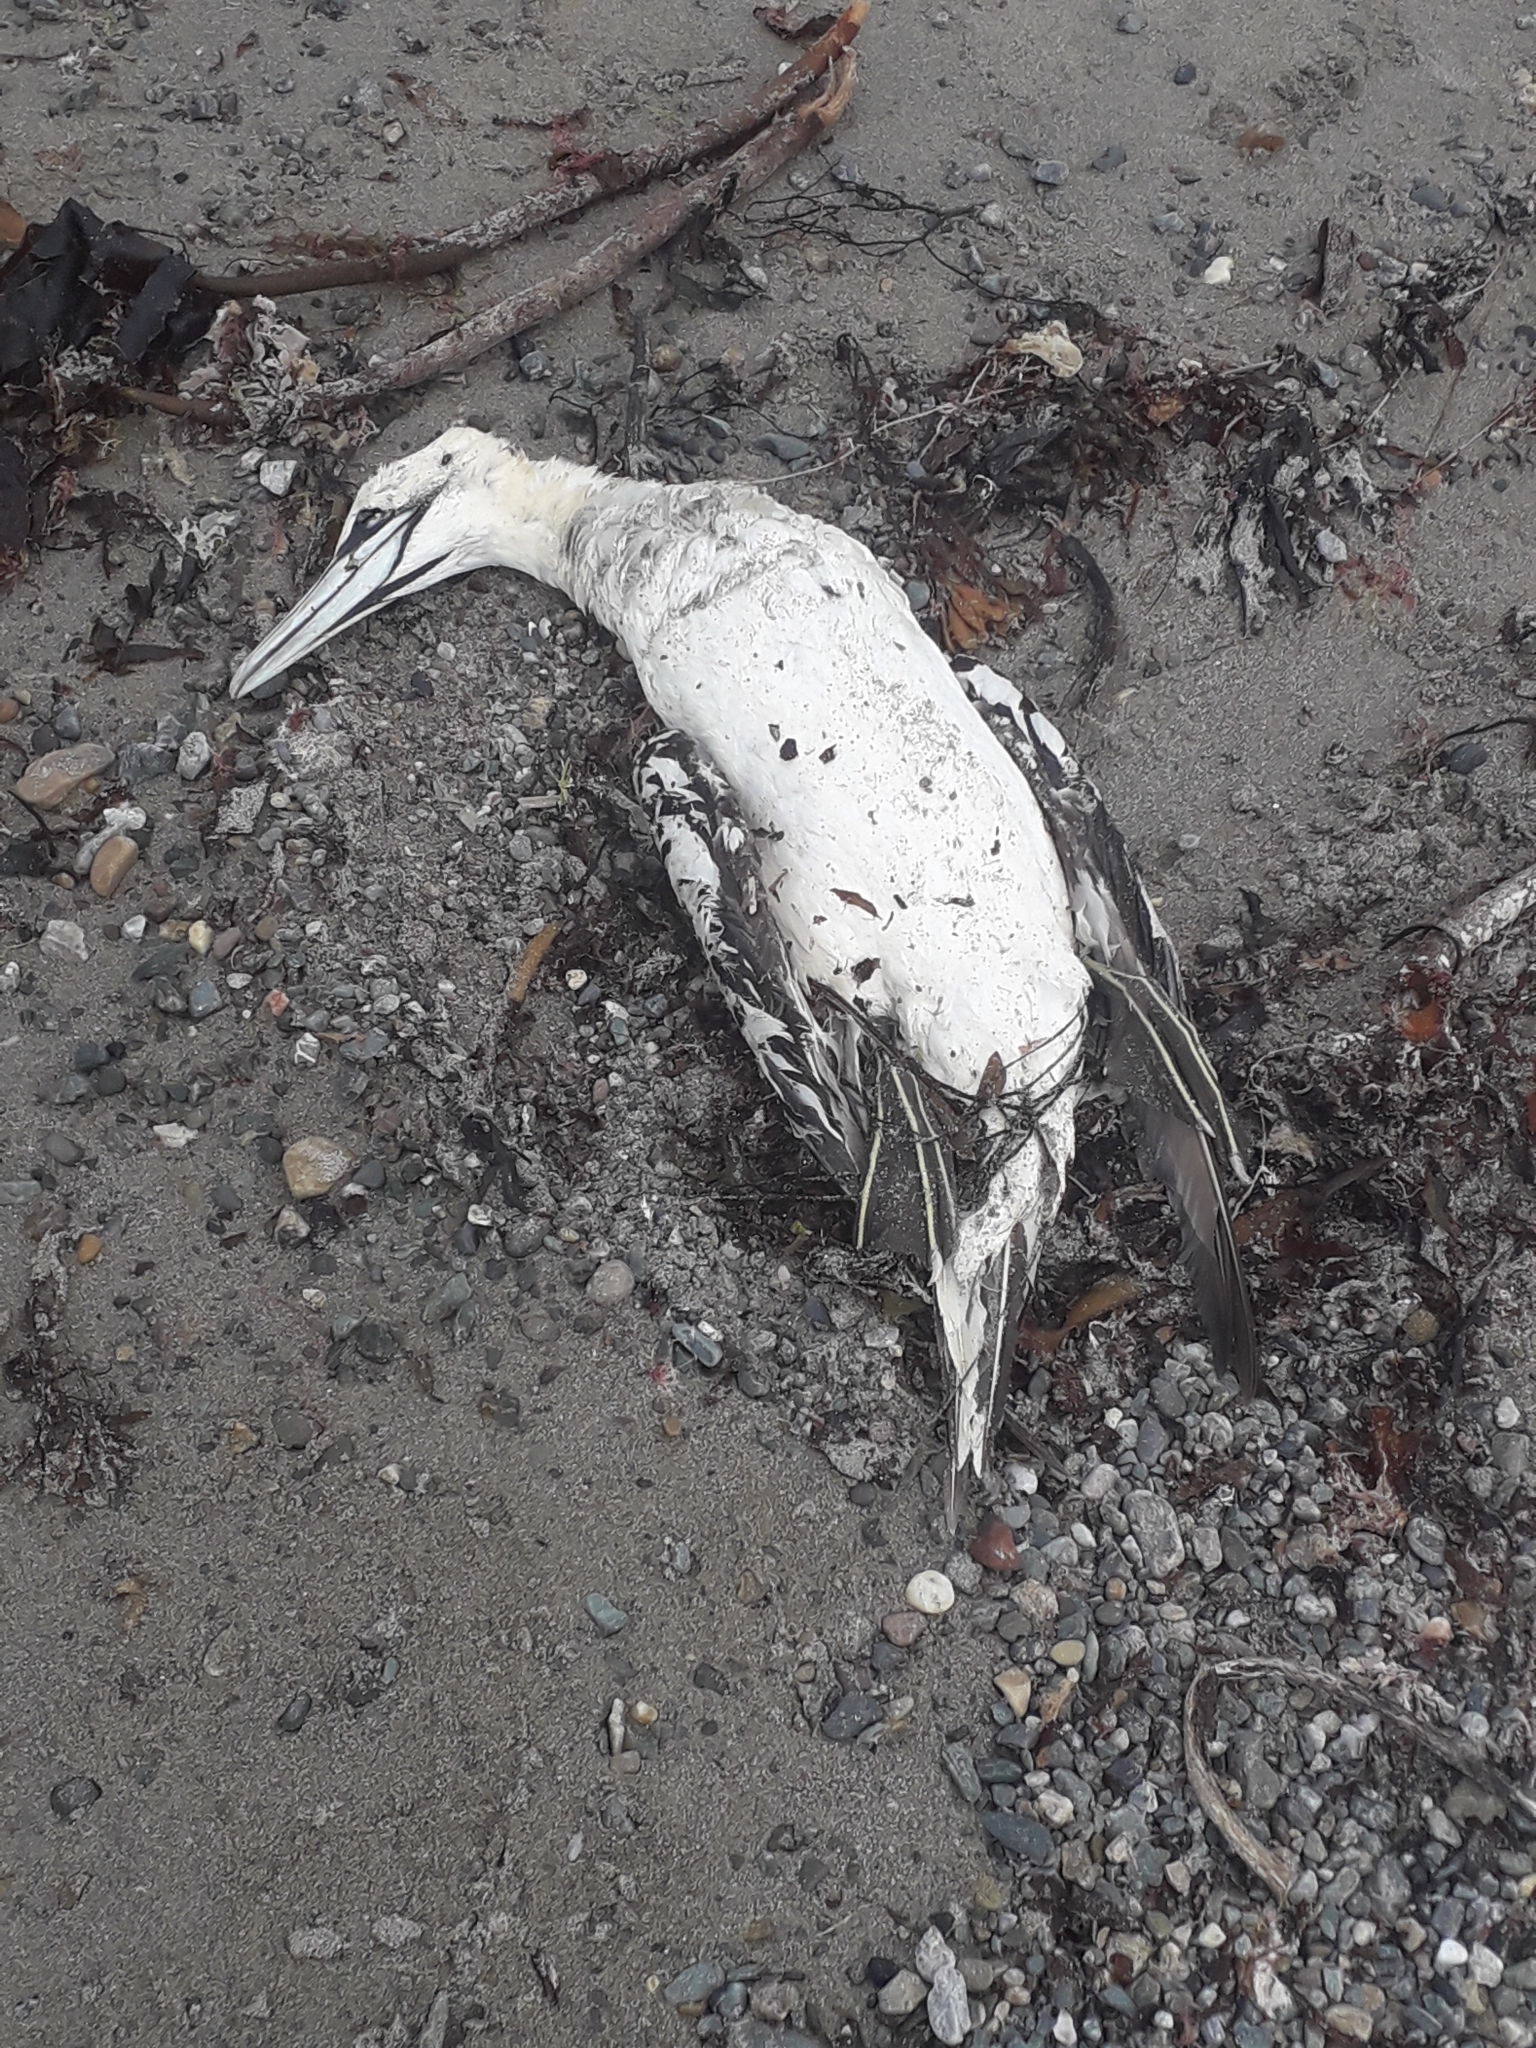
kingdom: Animalia
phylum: Chordata
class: Aves
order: Suliformes
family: Sulidae
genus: Morus
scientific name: Morus bassanus
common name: Northern gannet
